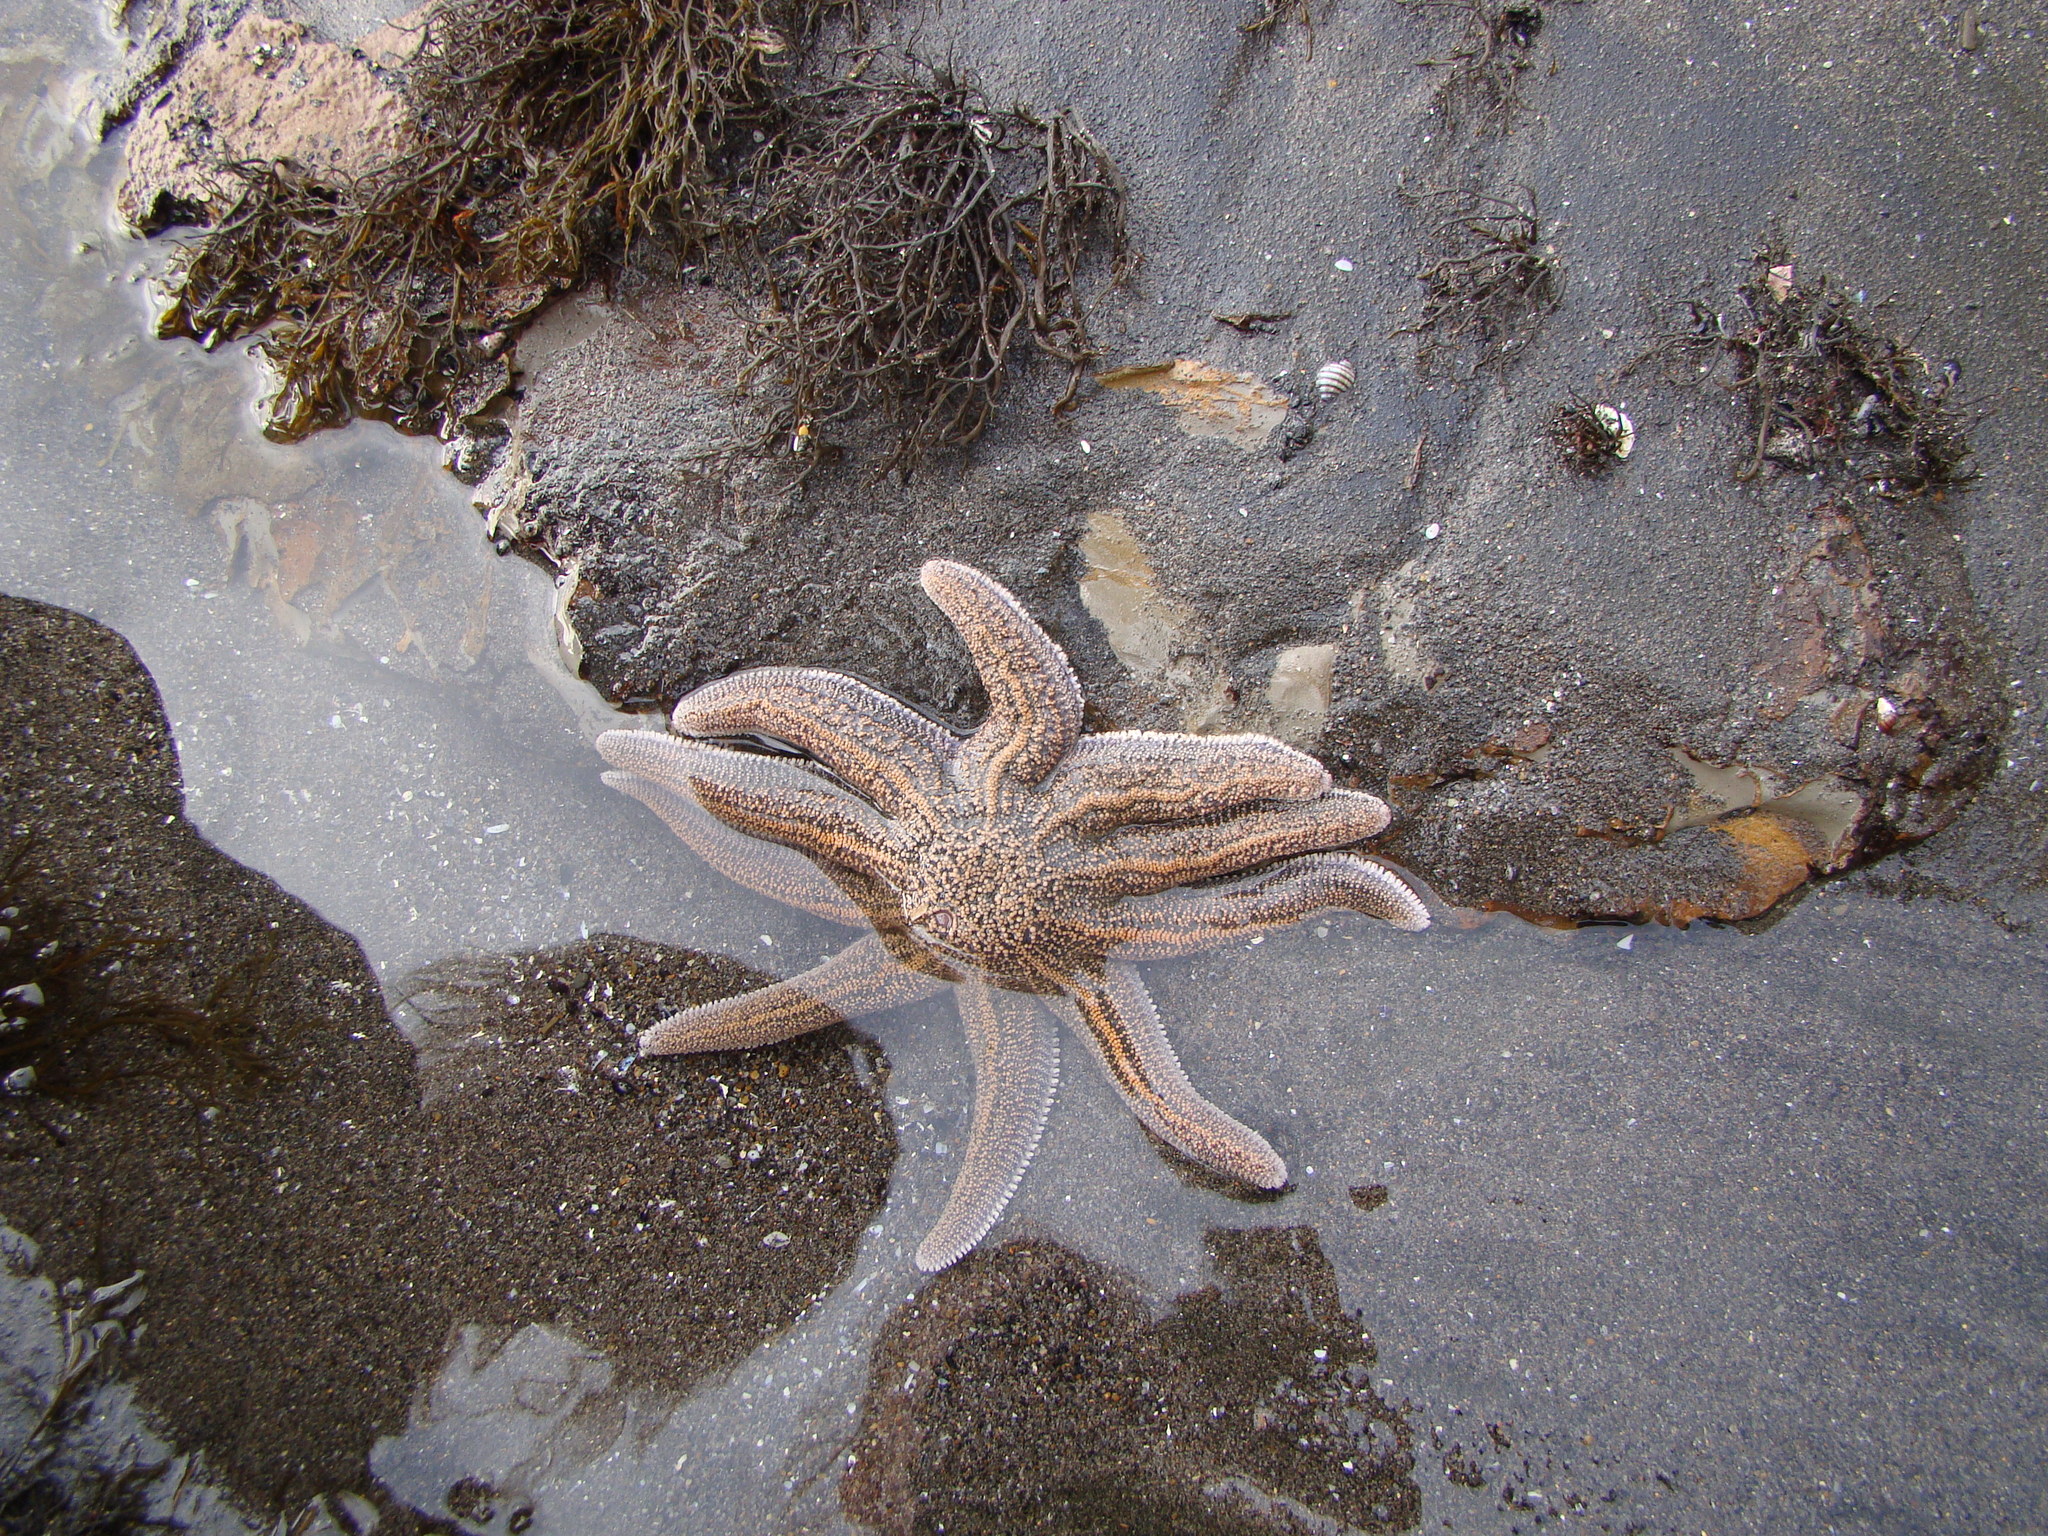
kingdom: Animalia
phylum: Echinodermata
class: Asteroidea
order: Forcipulatida
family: Stichasteridae
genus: Stichaster
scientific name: Stichaster australis
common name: Reef starfish
